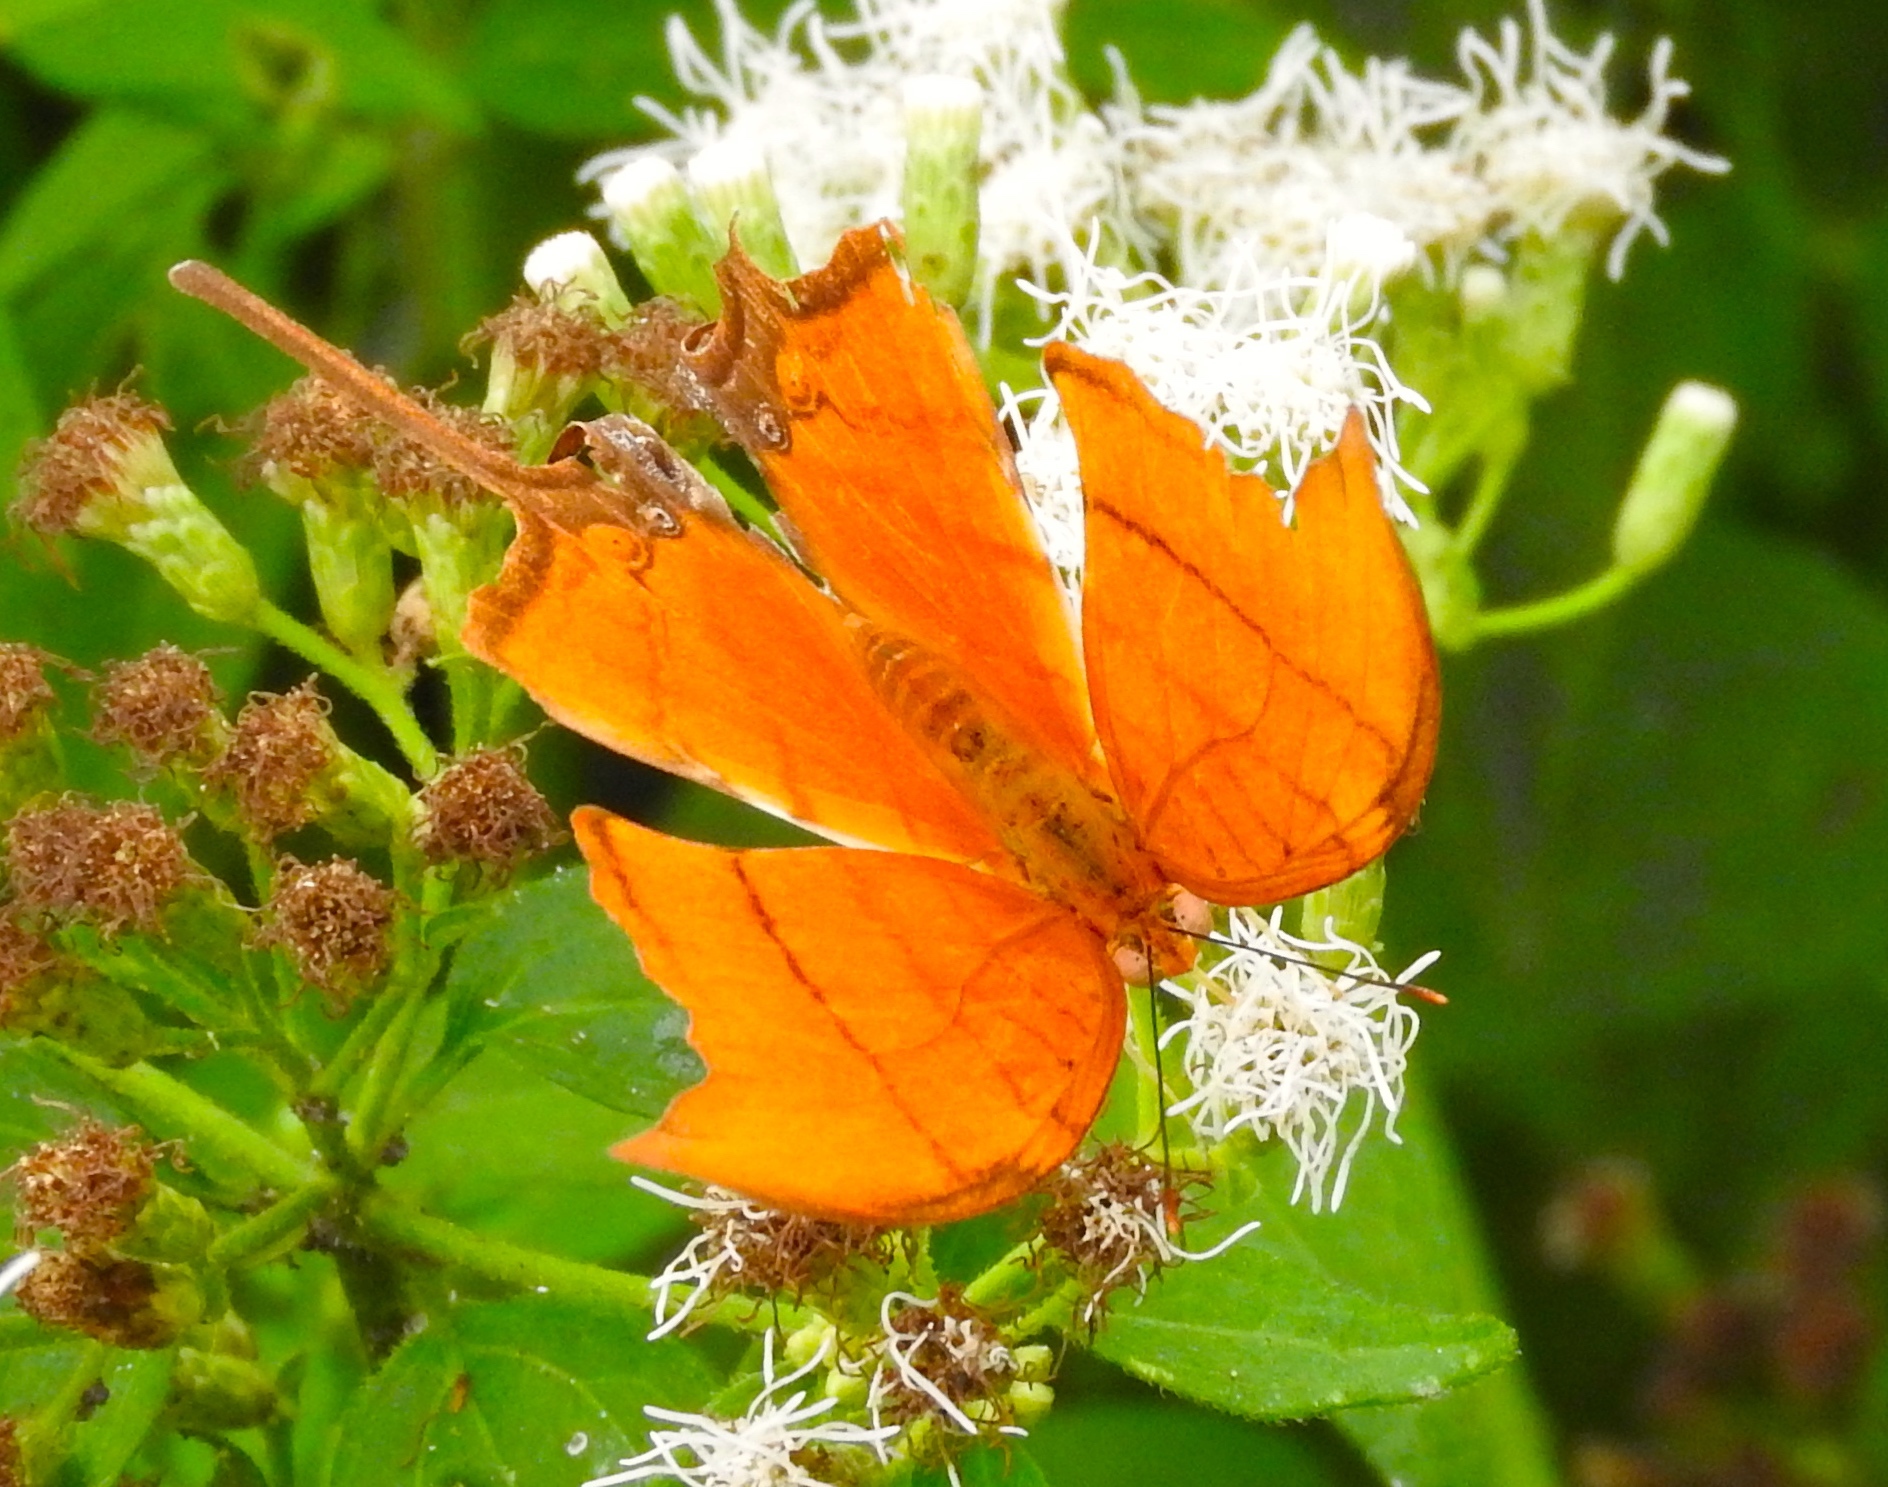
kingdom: Animalia
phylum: Arthropoda
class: Insecta
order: Lepidoptera
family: Nymphalidae
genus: Marpesia
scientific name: Marpesia petreus
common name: Red dagger wing
